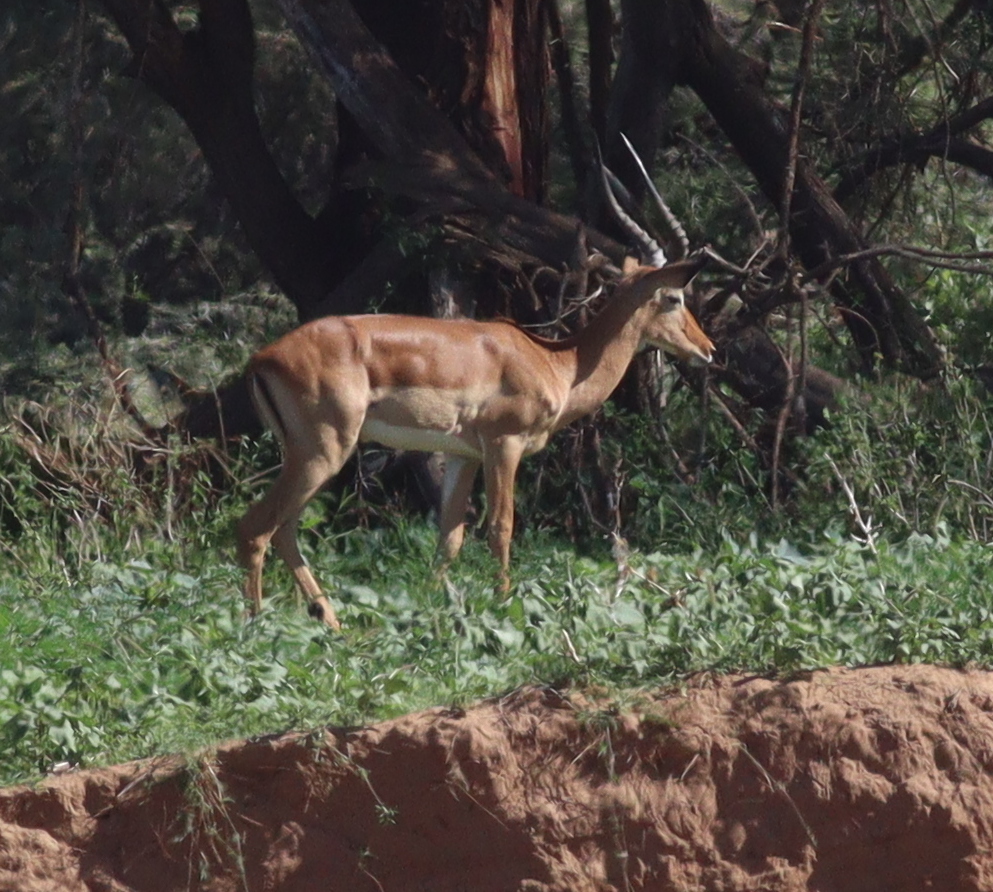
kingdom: Animalia
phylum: Chordata
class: Mammalia
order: Artiodactyla
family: Bovidae
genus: Aepyceros
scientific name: Aepyceros melampus
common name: Impala
